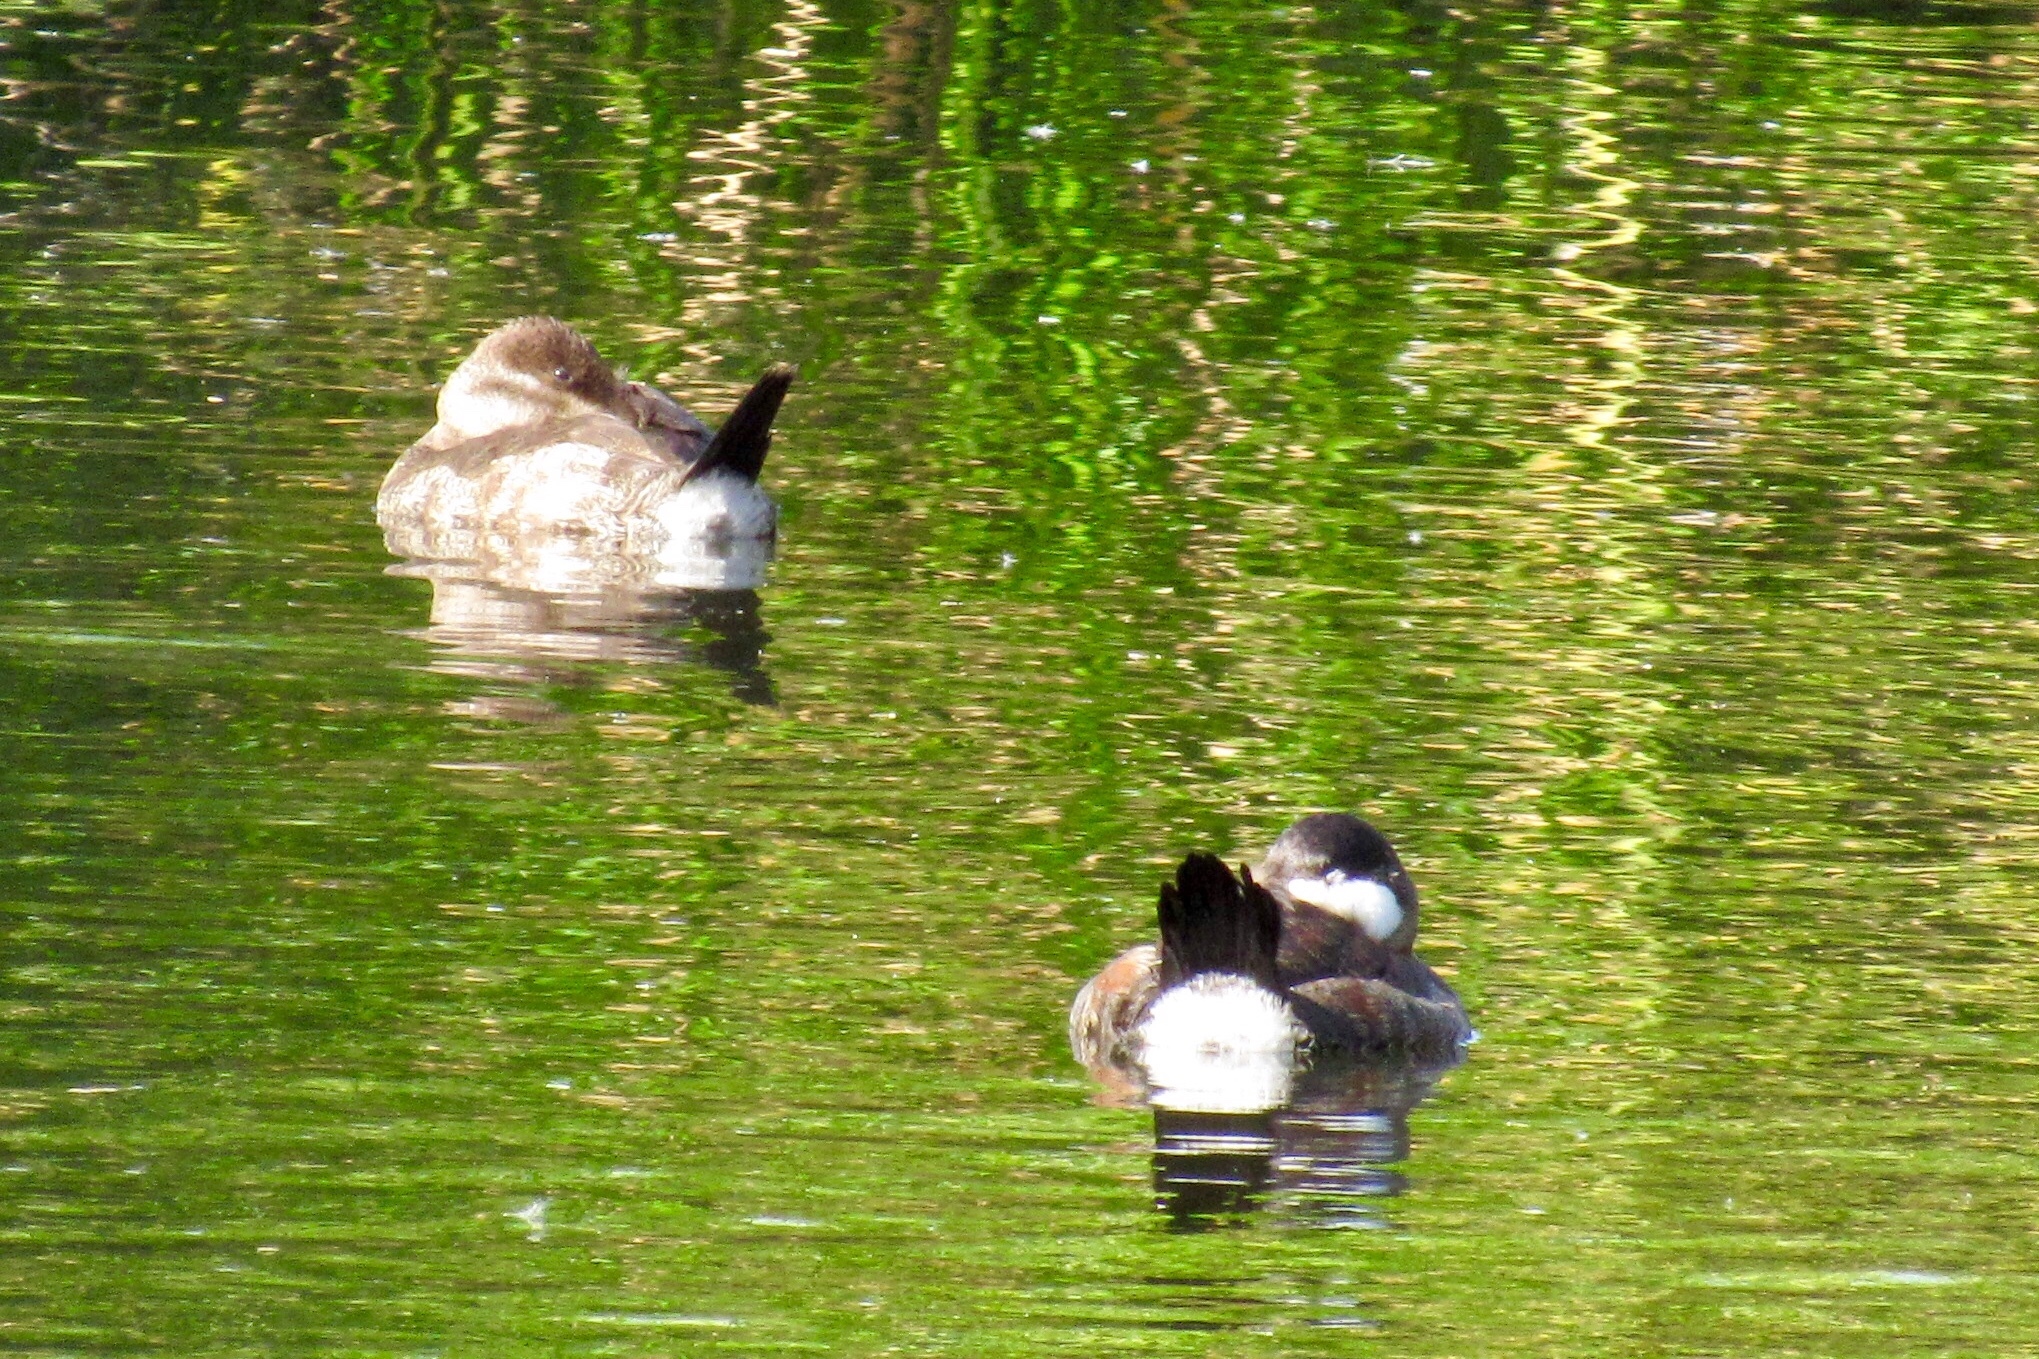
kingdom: Animalia
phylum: Chordata
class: Aves
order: Anseriformes
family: Anatidae
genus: Oxyura
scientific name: Oxyura jamaicensis
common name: Ruddy duck
